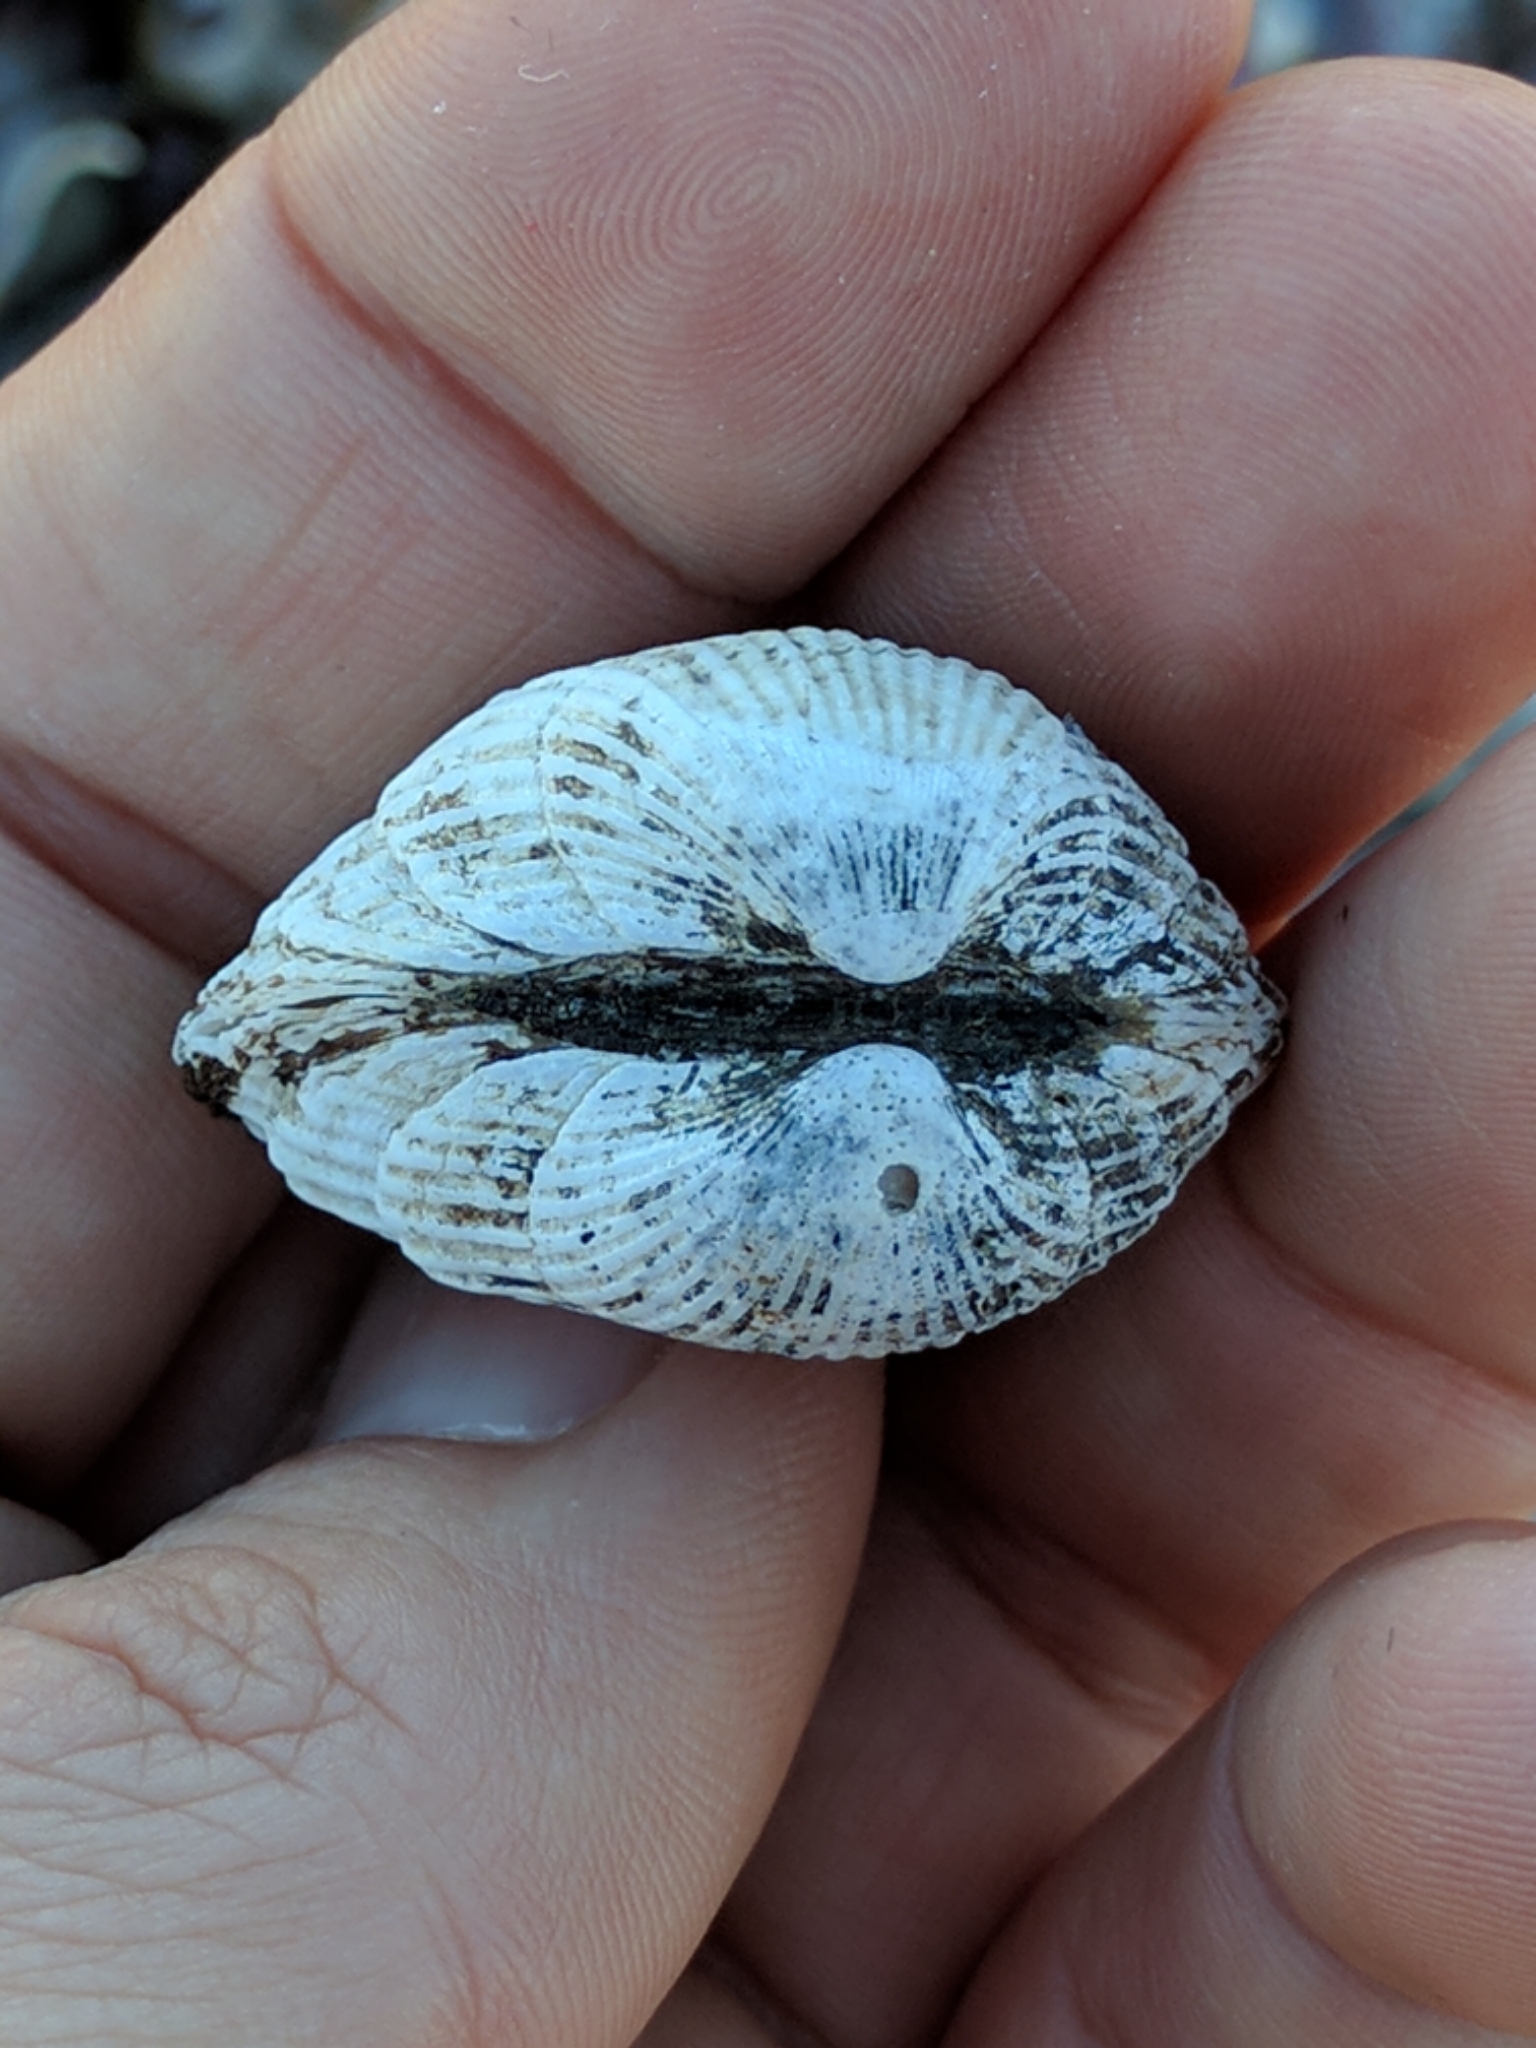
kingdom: Animalia
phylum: Mollusca
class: Bivalvia
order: Arcida
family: Arcidae
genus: Anadara
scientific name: Anadara transversa
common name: Transverse ark
